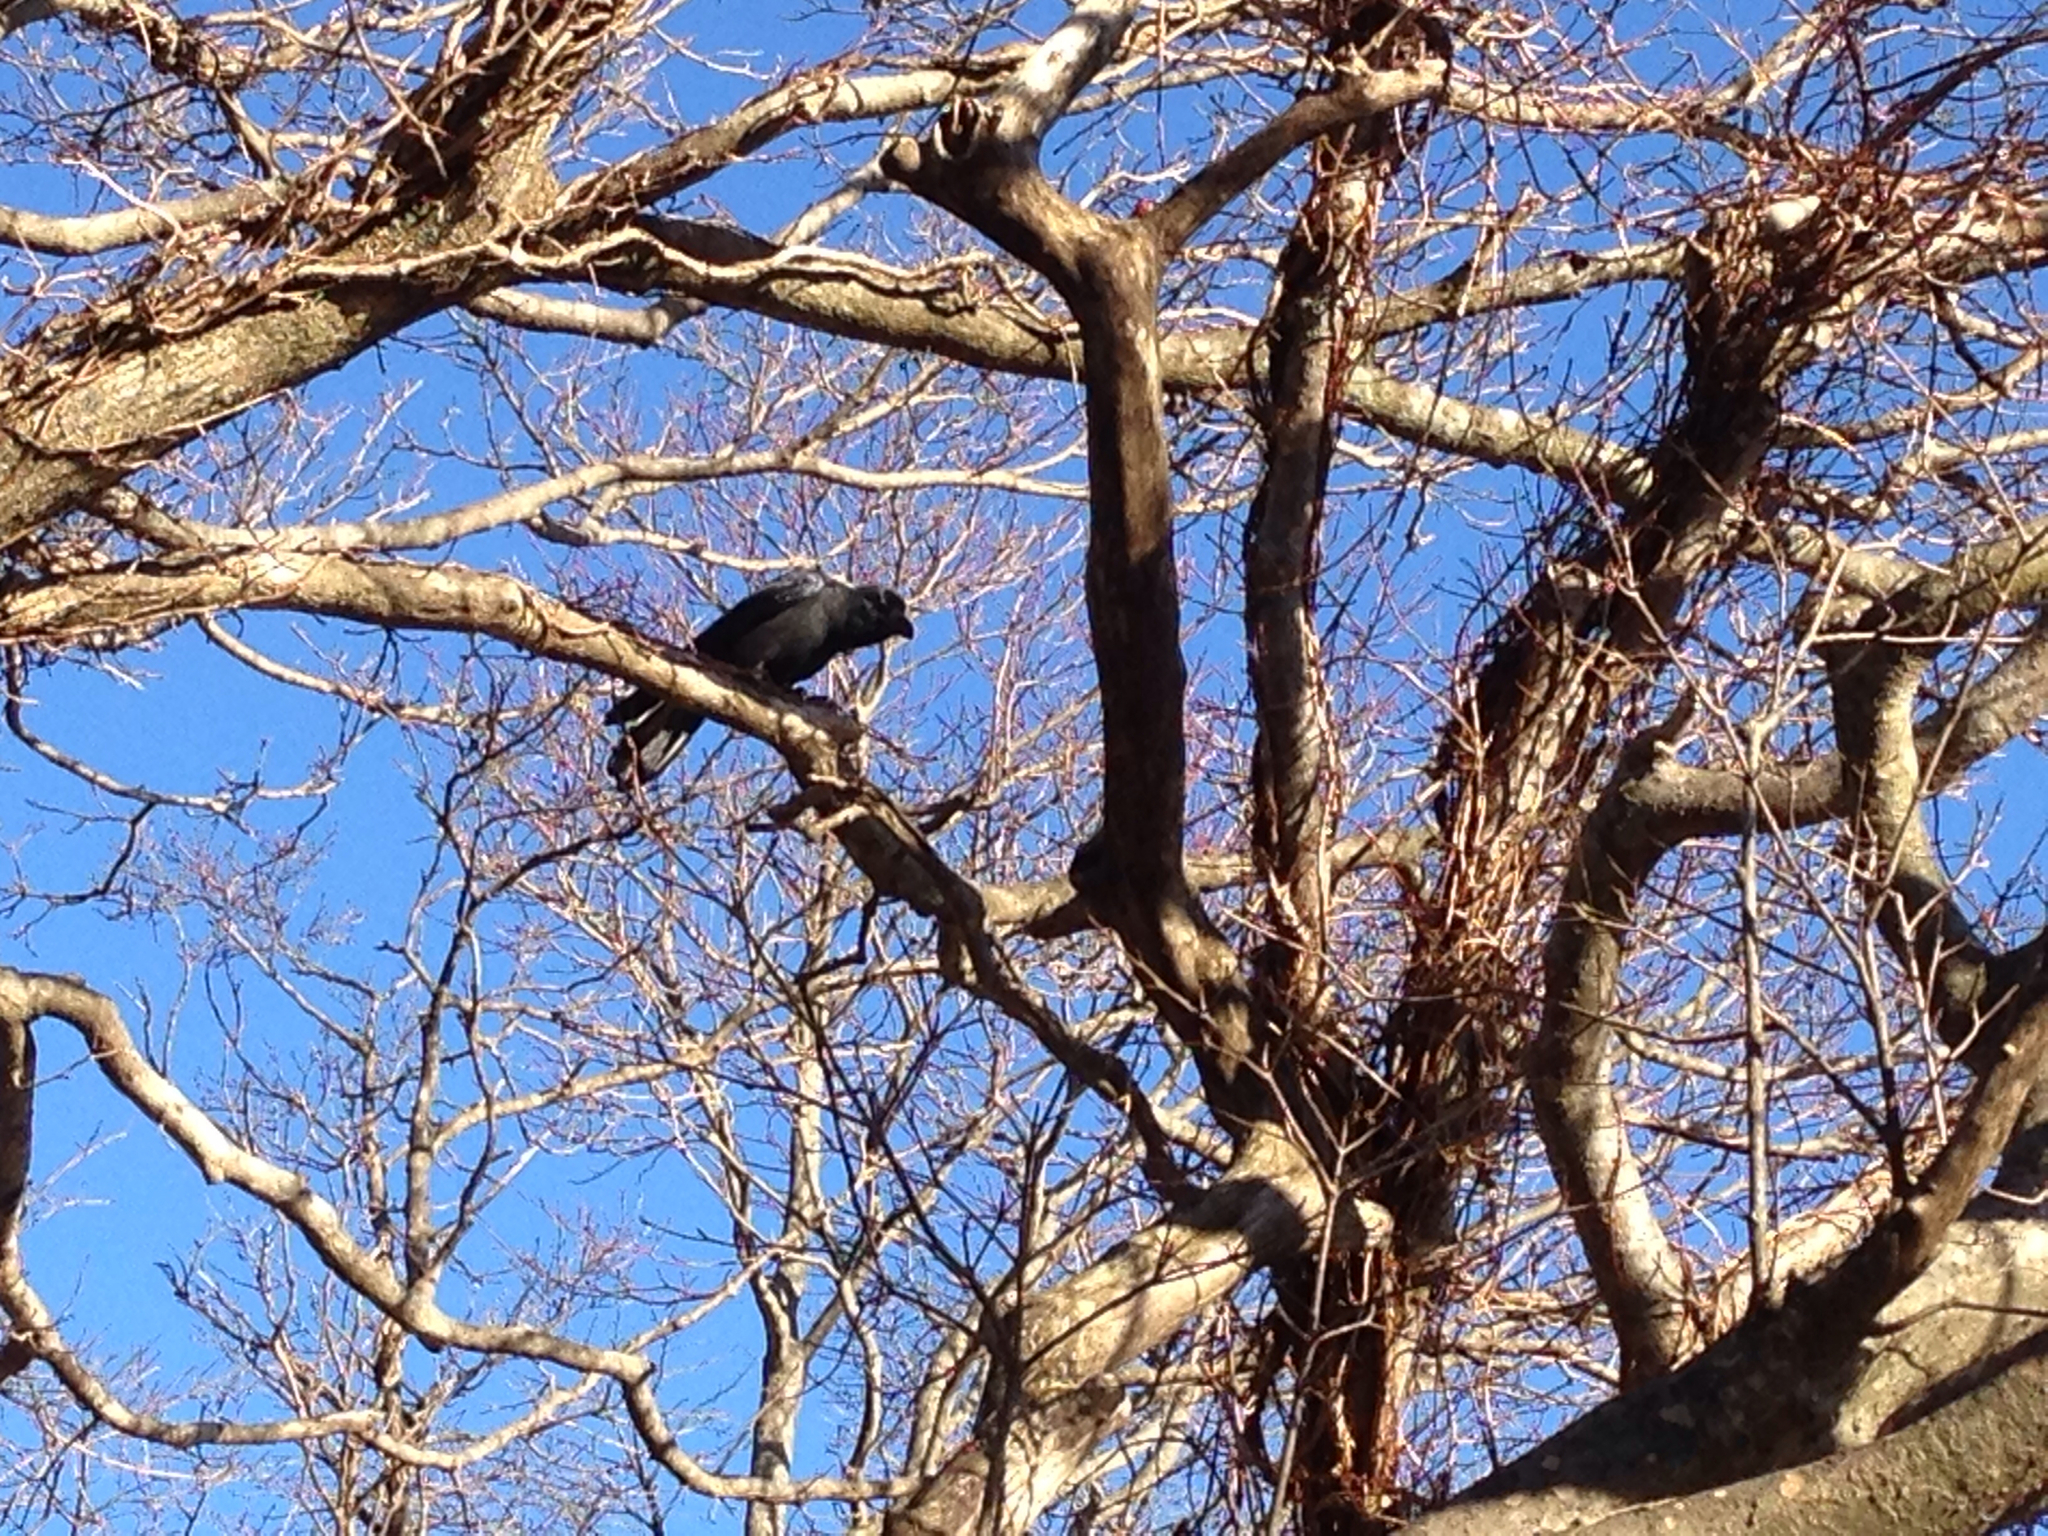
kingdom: Animalia
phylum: Chordata
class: Aves
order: Passeriformes
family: Corvidae
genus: Corvus
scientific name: Corvus macrorhynchos
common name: Large-billed crow
